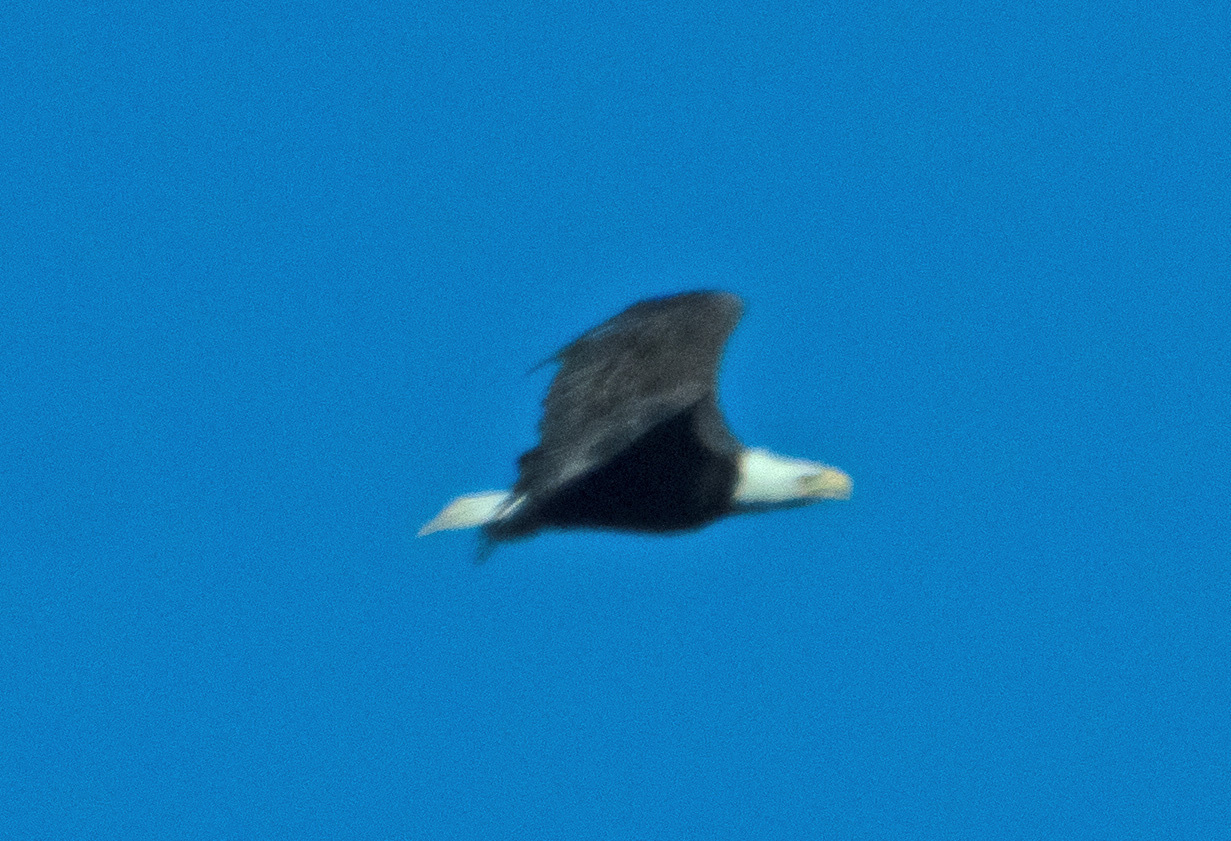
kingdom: Animalia
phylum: Chordata
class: Aves
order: Accipitriformes
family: Accipitridae
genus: Haliaeetus
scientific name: Haliaeetus leucocephalus
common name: Bald eagle
